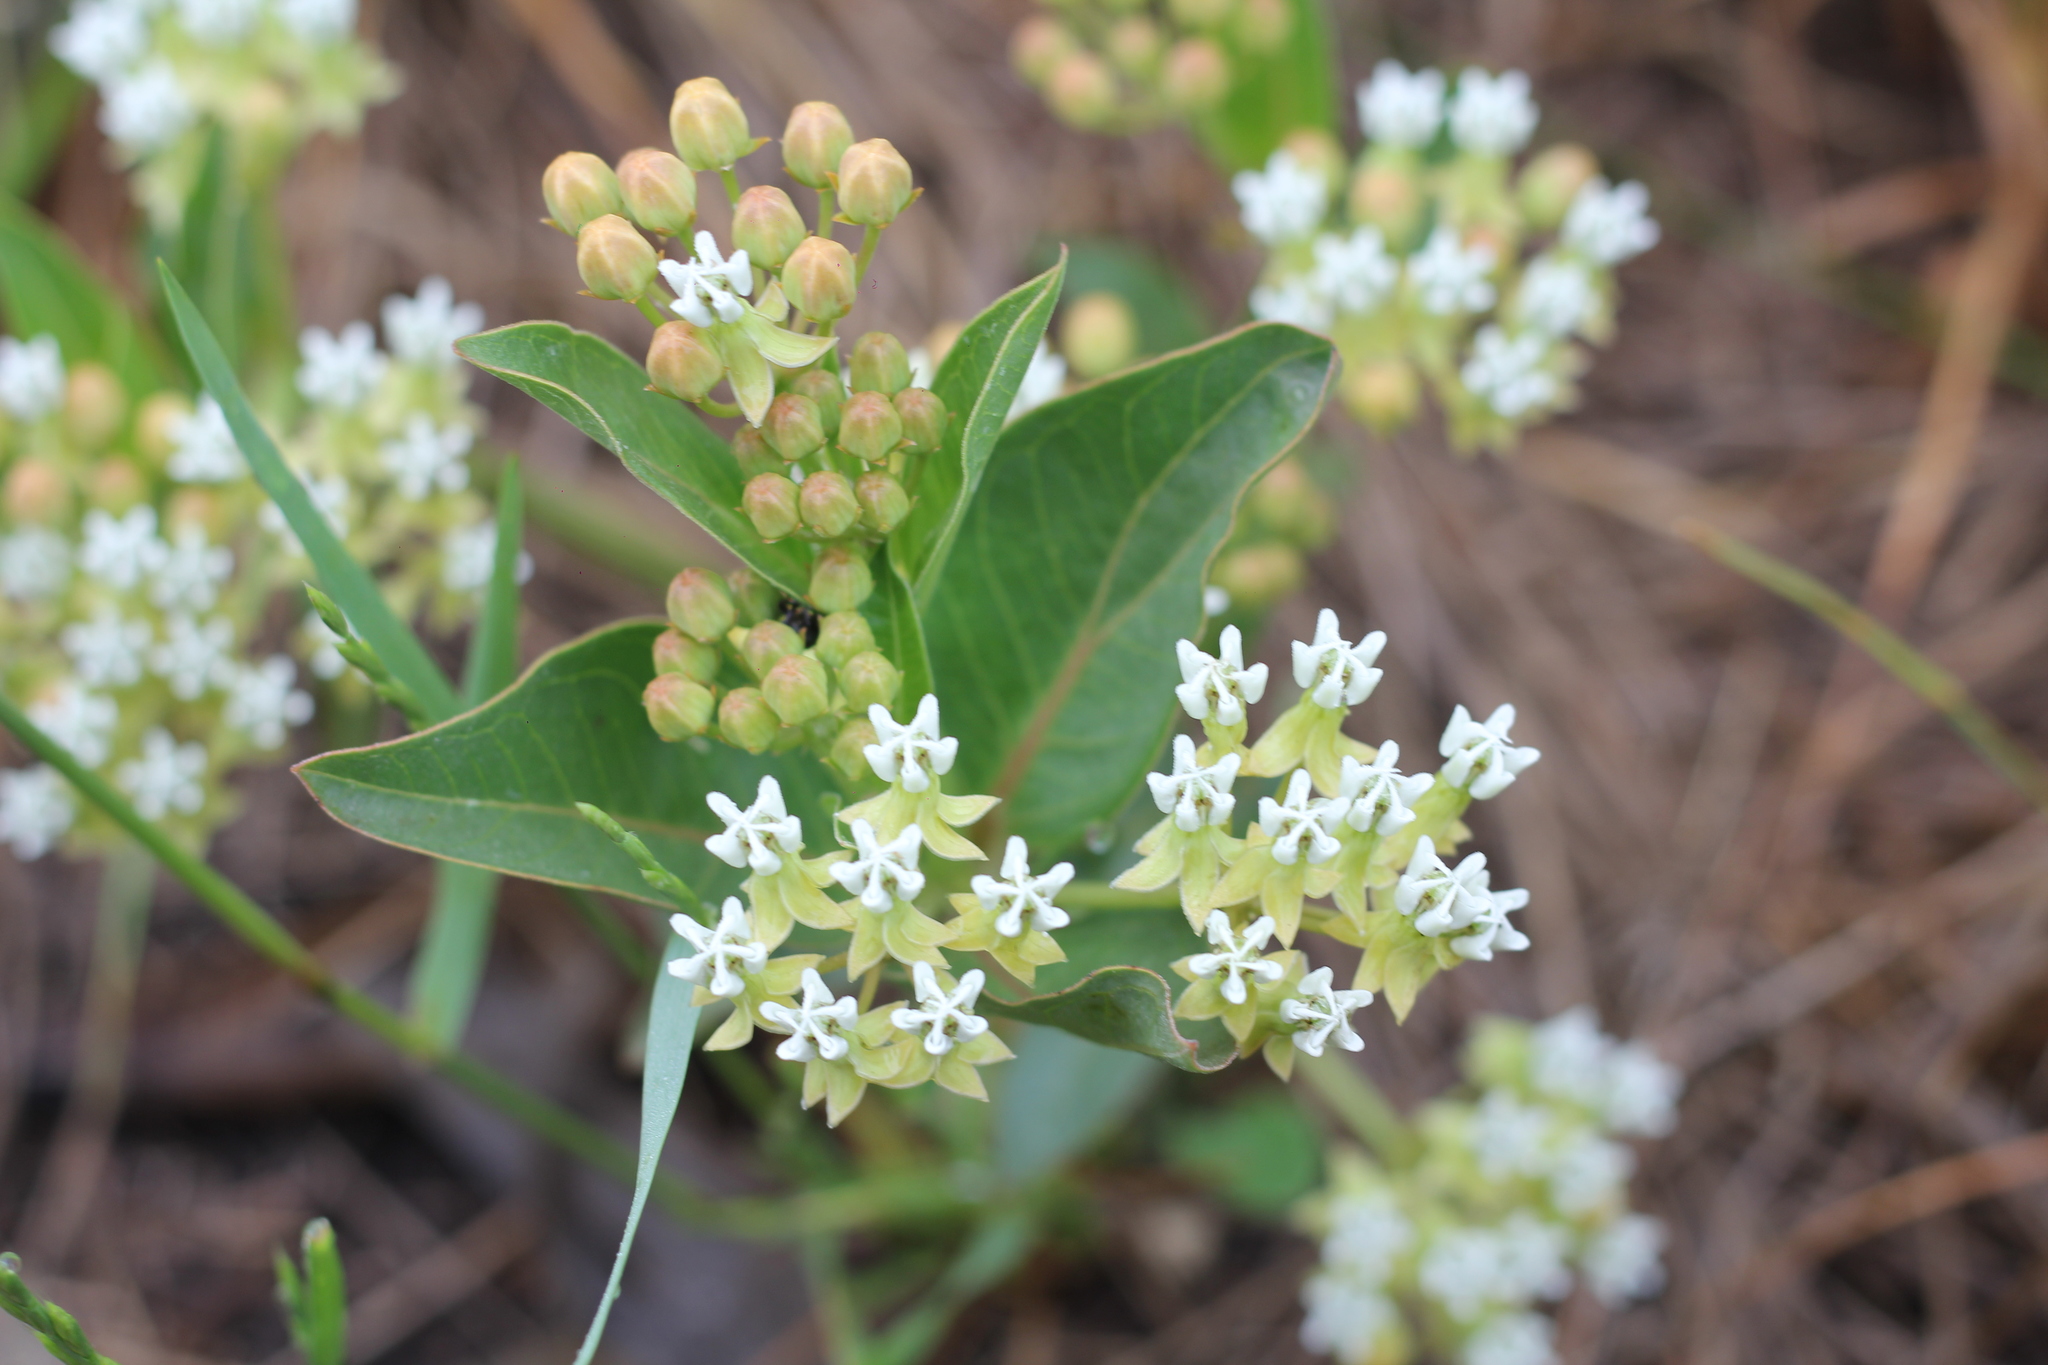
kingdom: Plantae
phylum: Tracheophyta
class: Magnoliopsida
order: Gentianales
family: Apocynaceae
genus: Asclepias
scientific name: Asclepias mellodora
